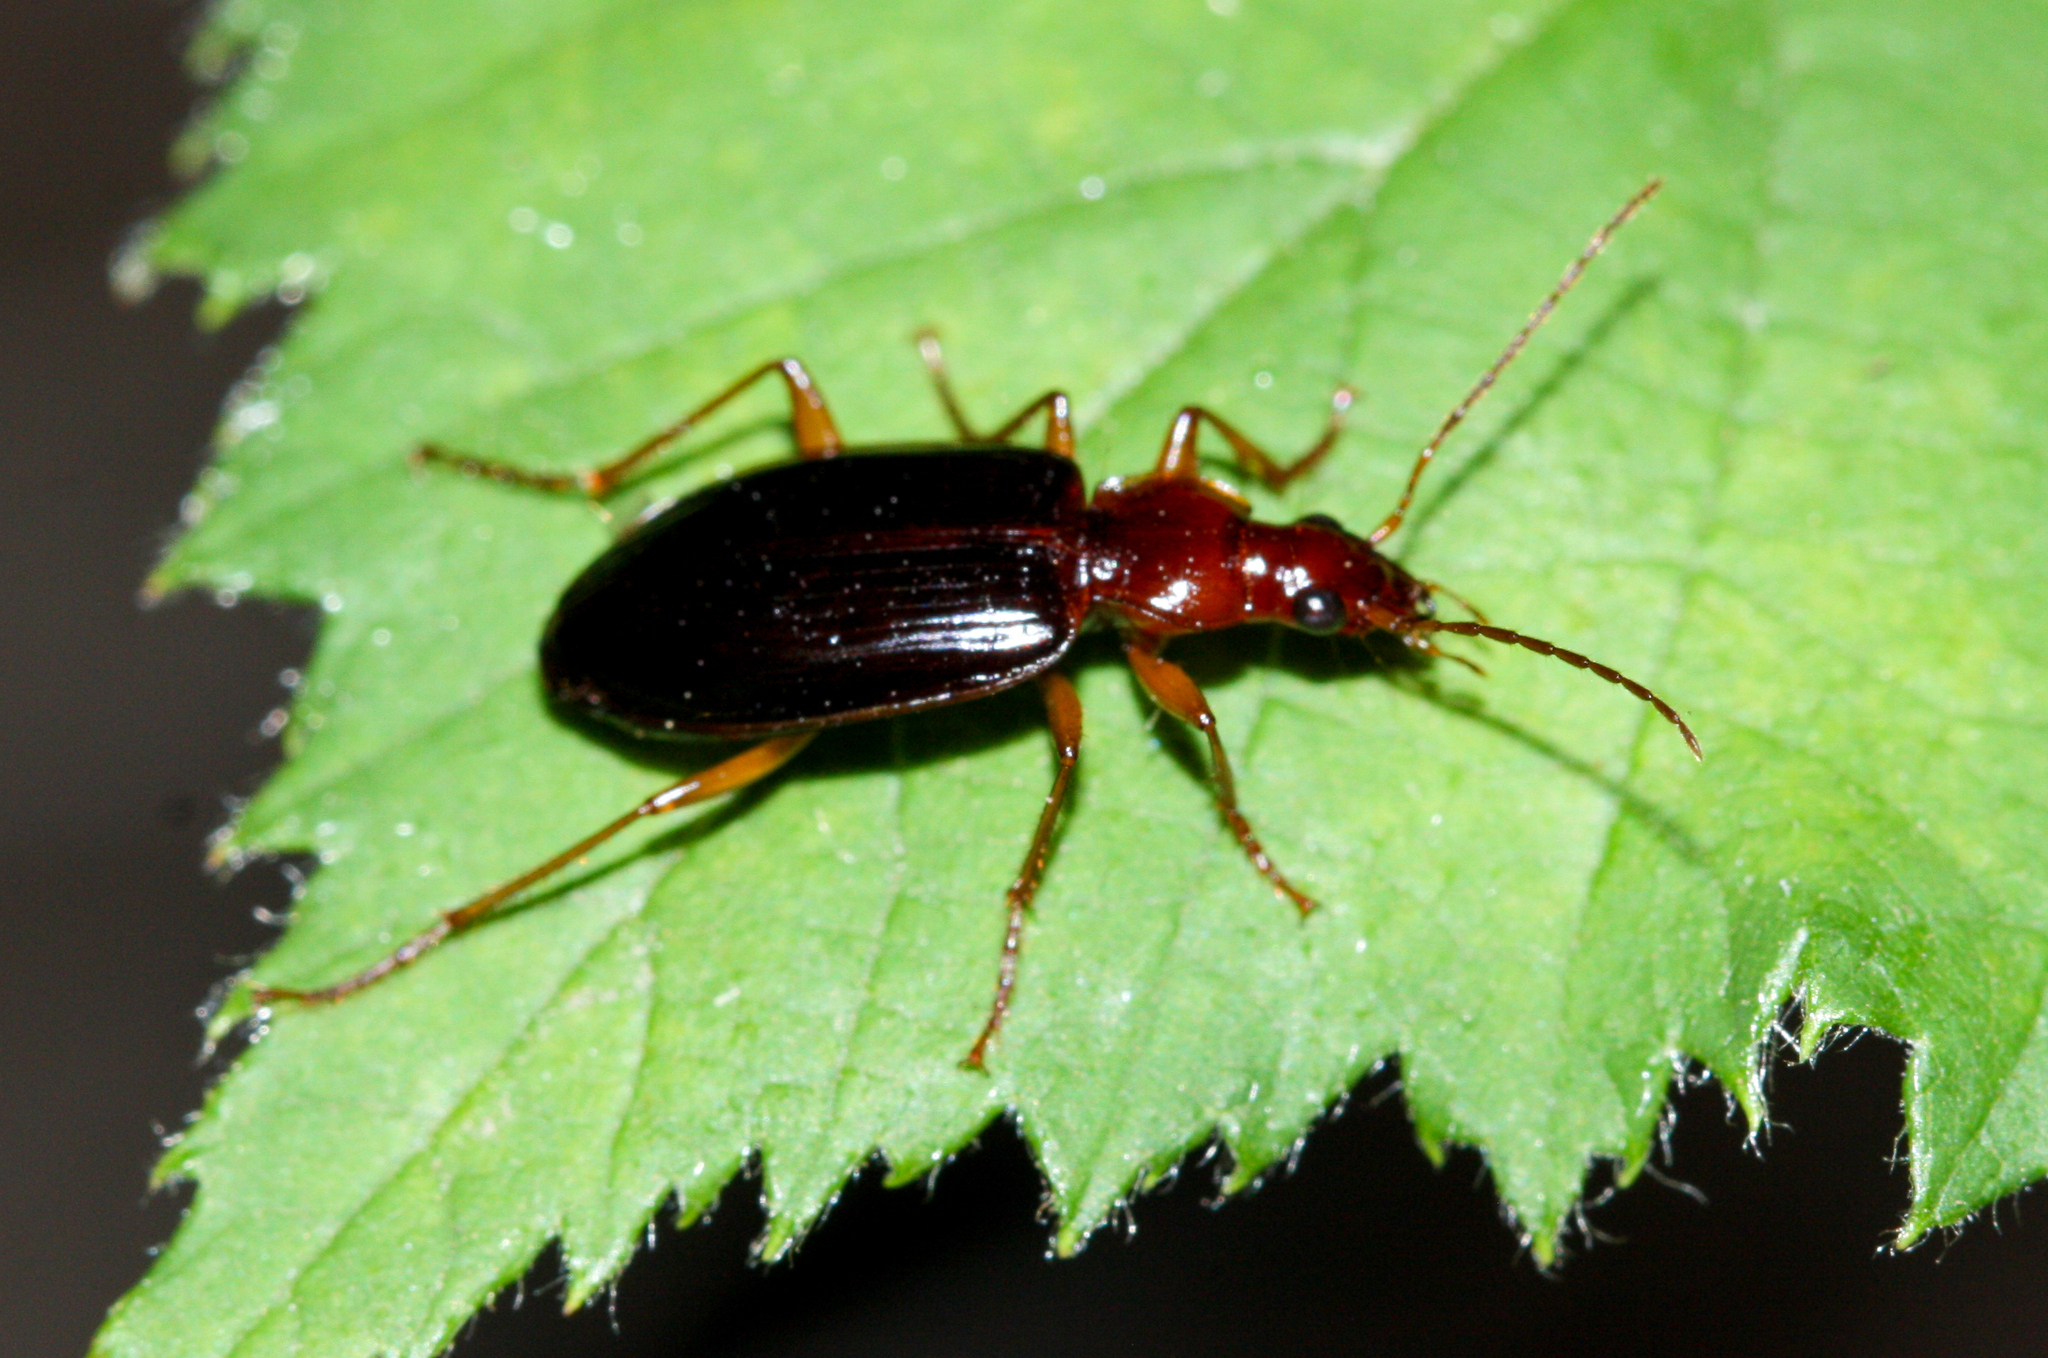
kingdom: Animalia
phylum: Arthropoda
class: Insecta
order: Coleoptera
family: Carabidae
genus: Platynus
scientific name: Platynus brunneomarginatus
